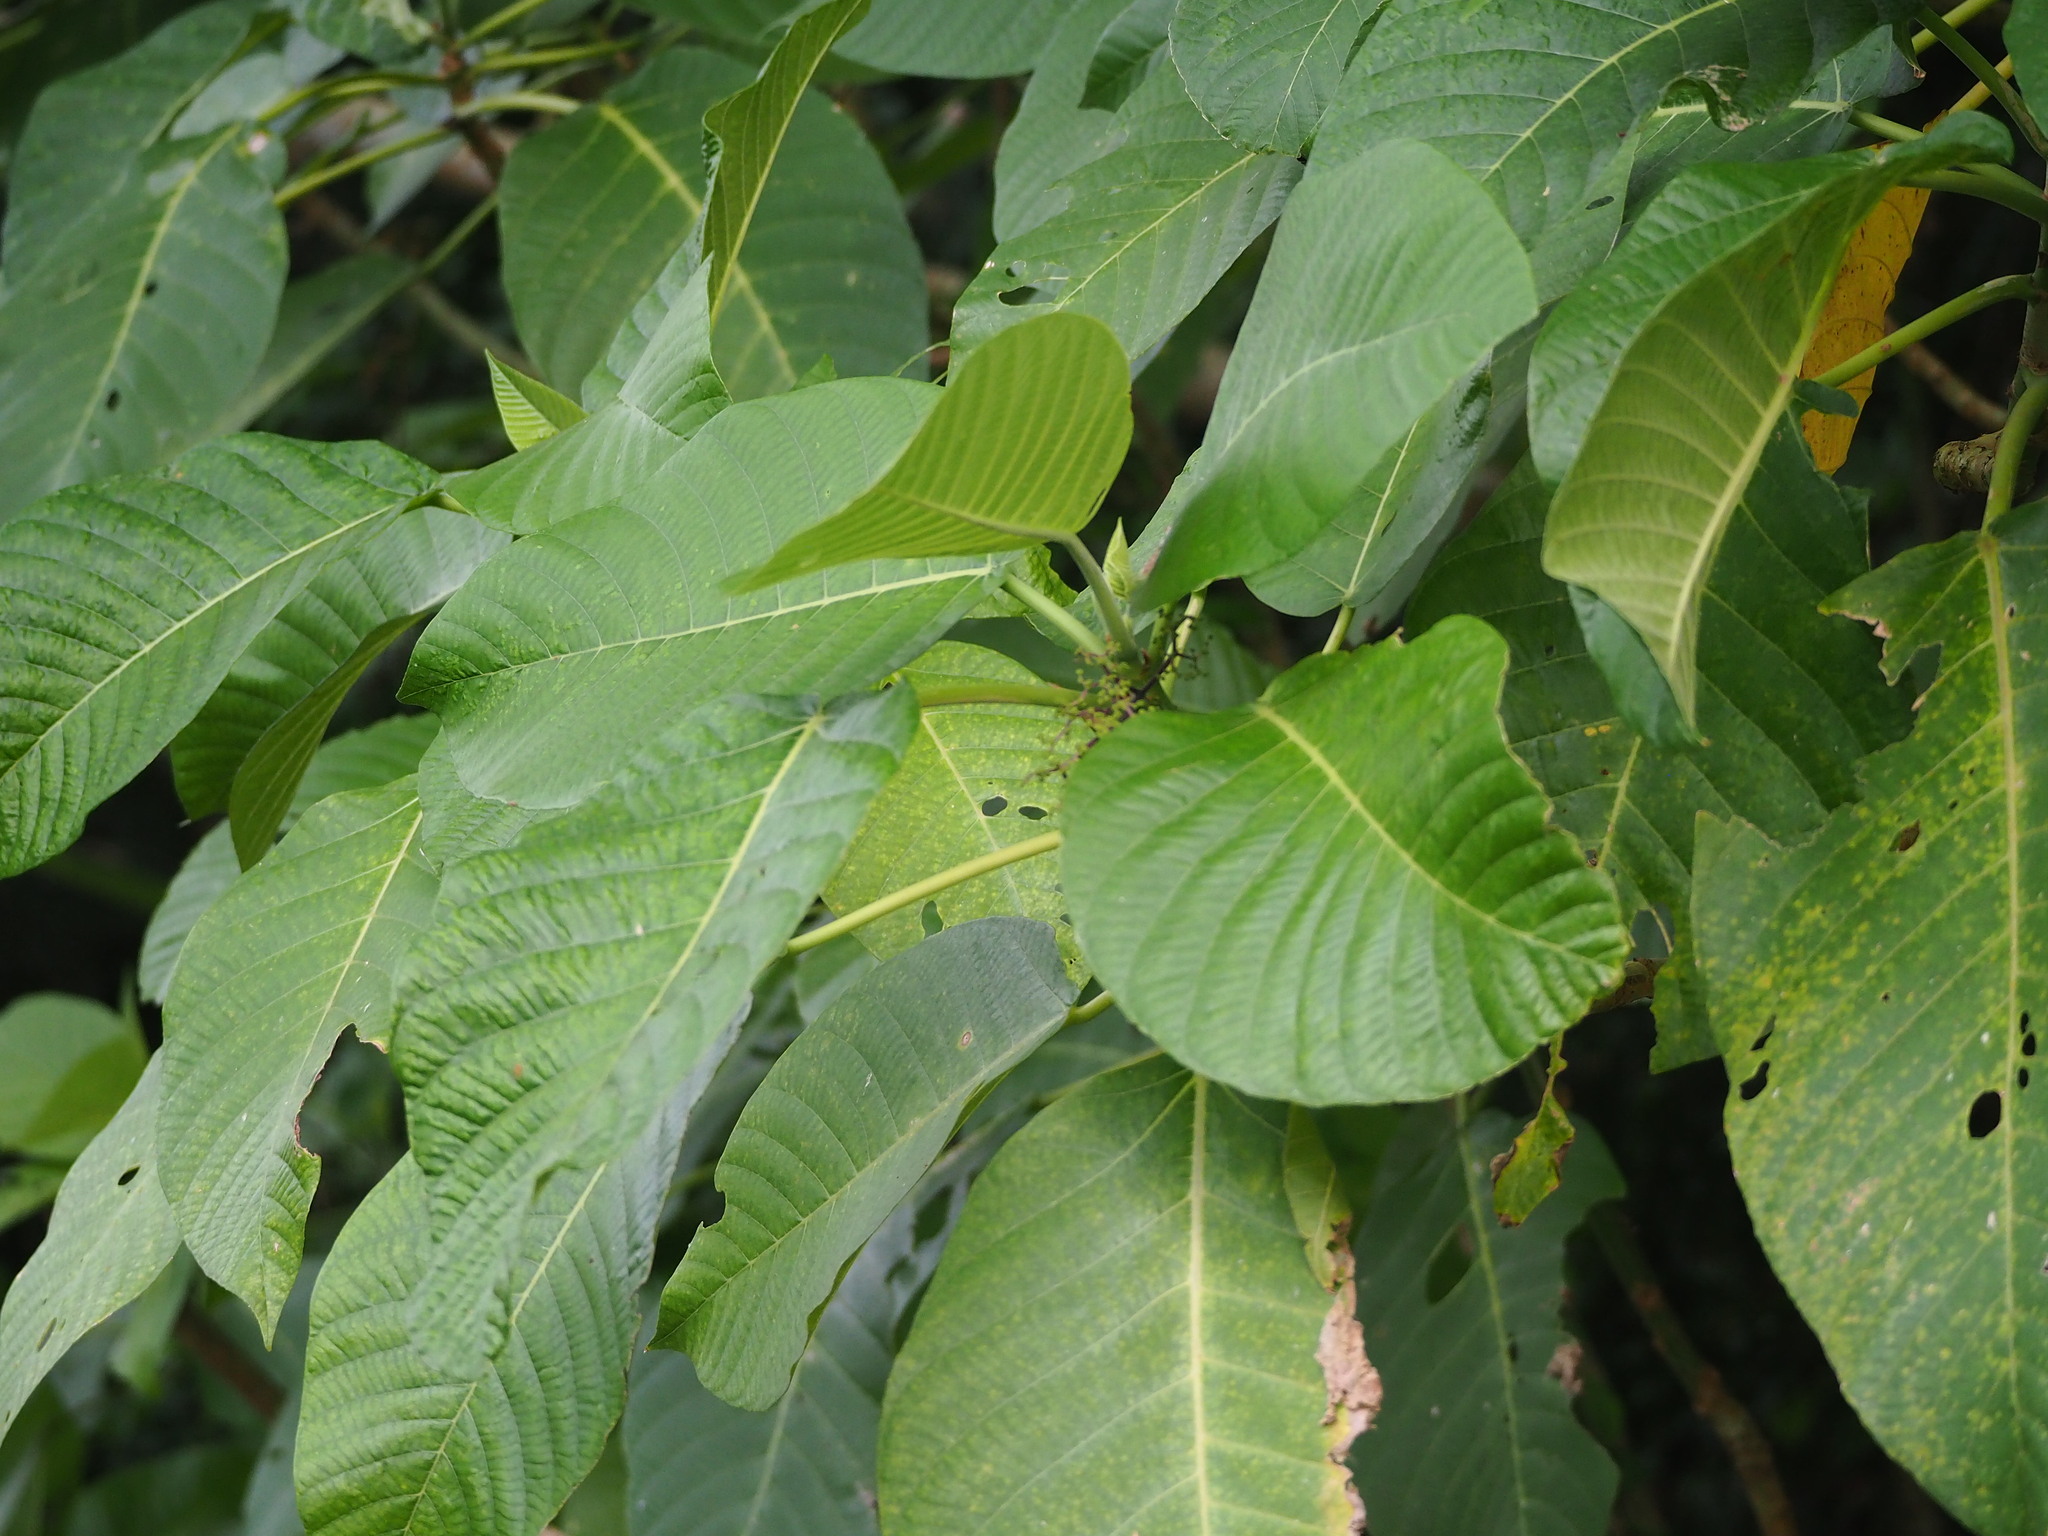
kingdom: Plantae
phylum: Tracheophyta
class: Magnoliopsida
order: Rosales
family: Urticaceae
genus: Dendrocnide
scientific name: Dendrocnide meyeniana
